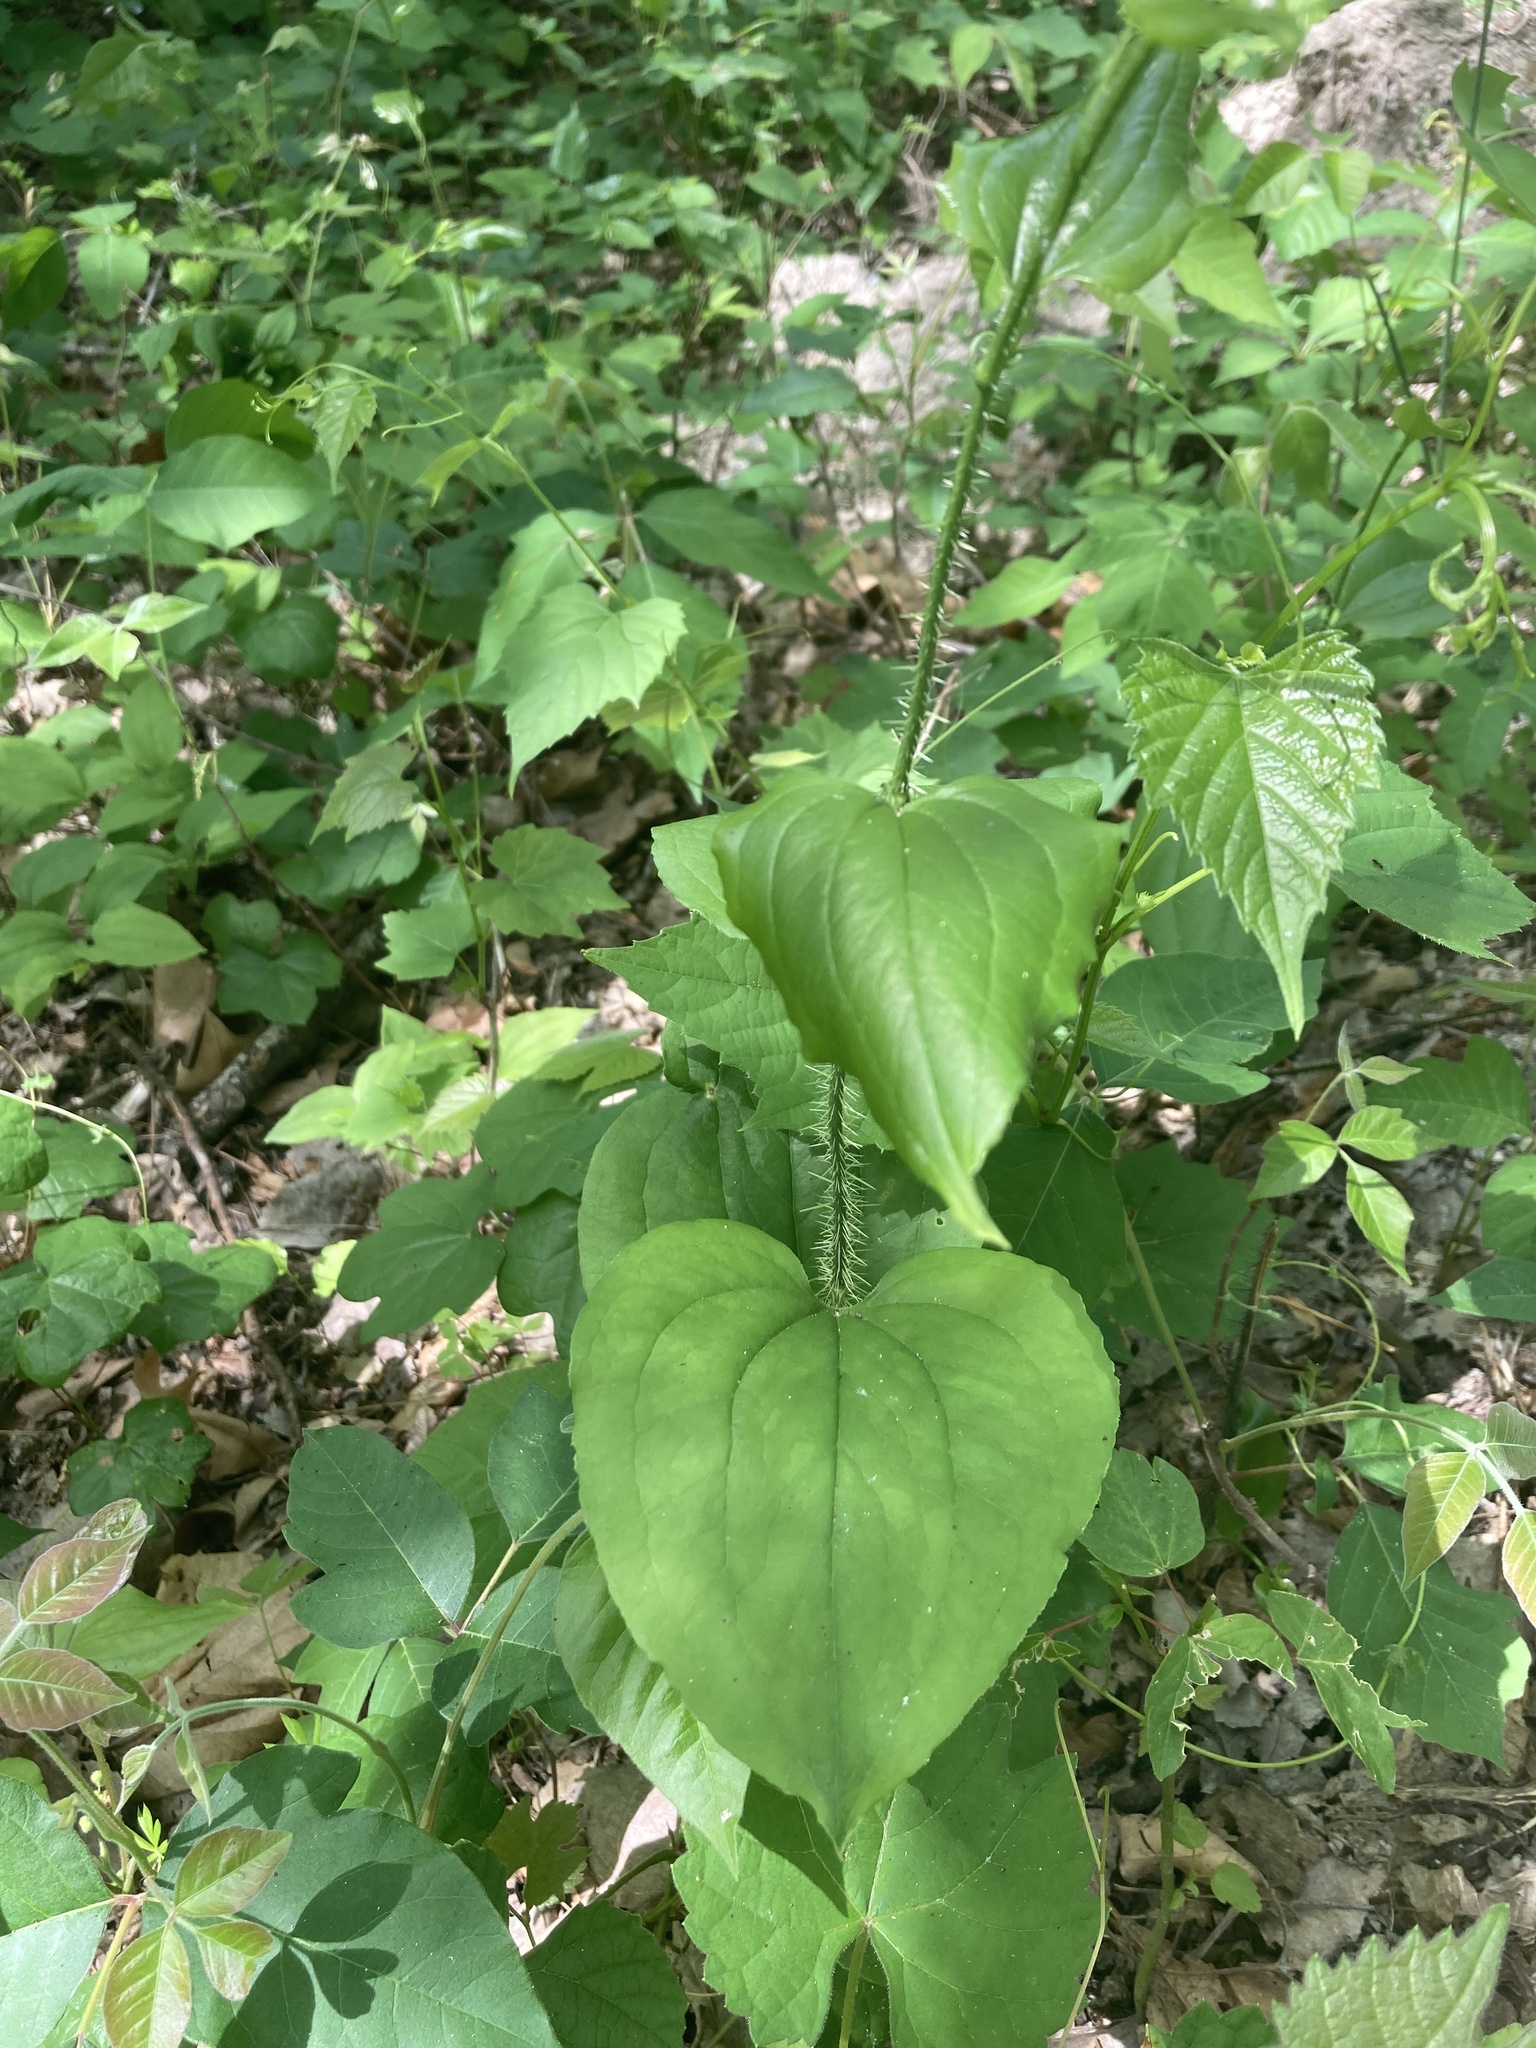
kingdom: Plantae
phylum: Tracheophyta
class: Liliopsida
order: Liliales
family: Smilacaceae
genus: Smilax
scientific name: Smilax tamnoides
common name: Hellfetter
